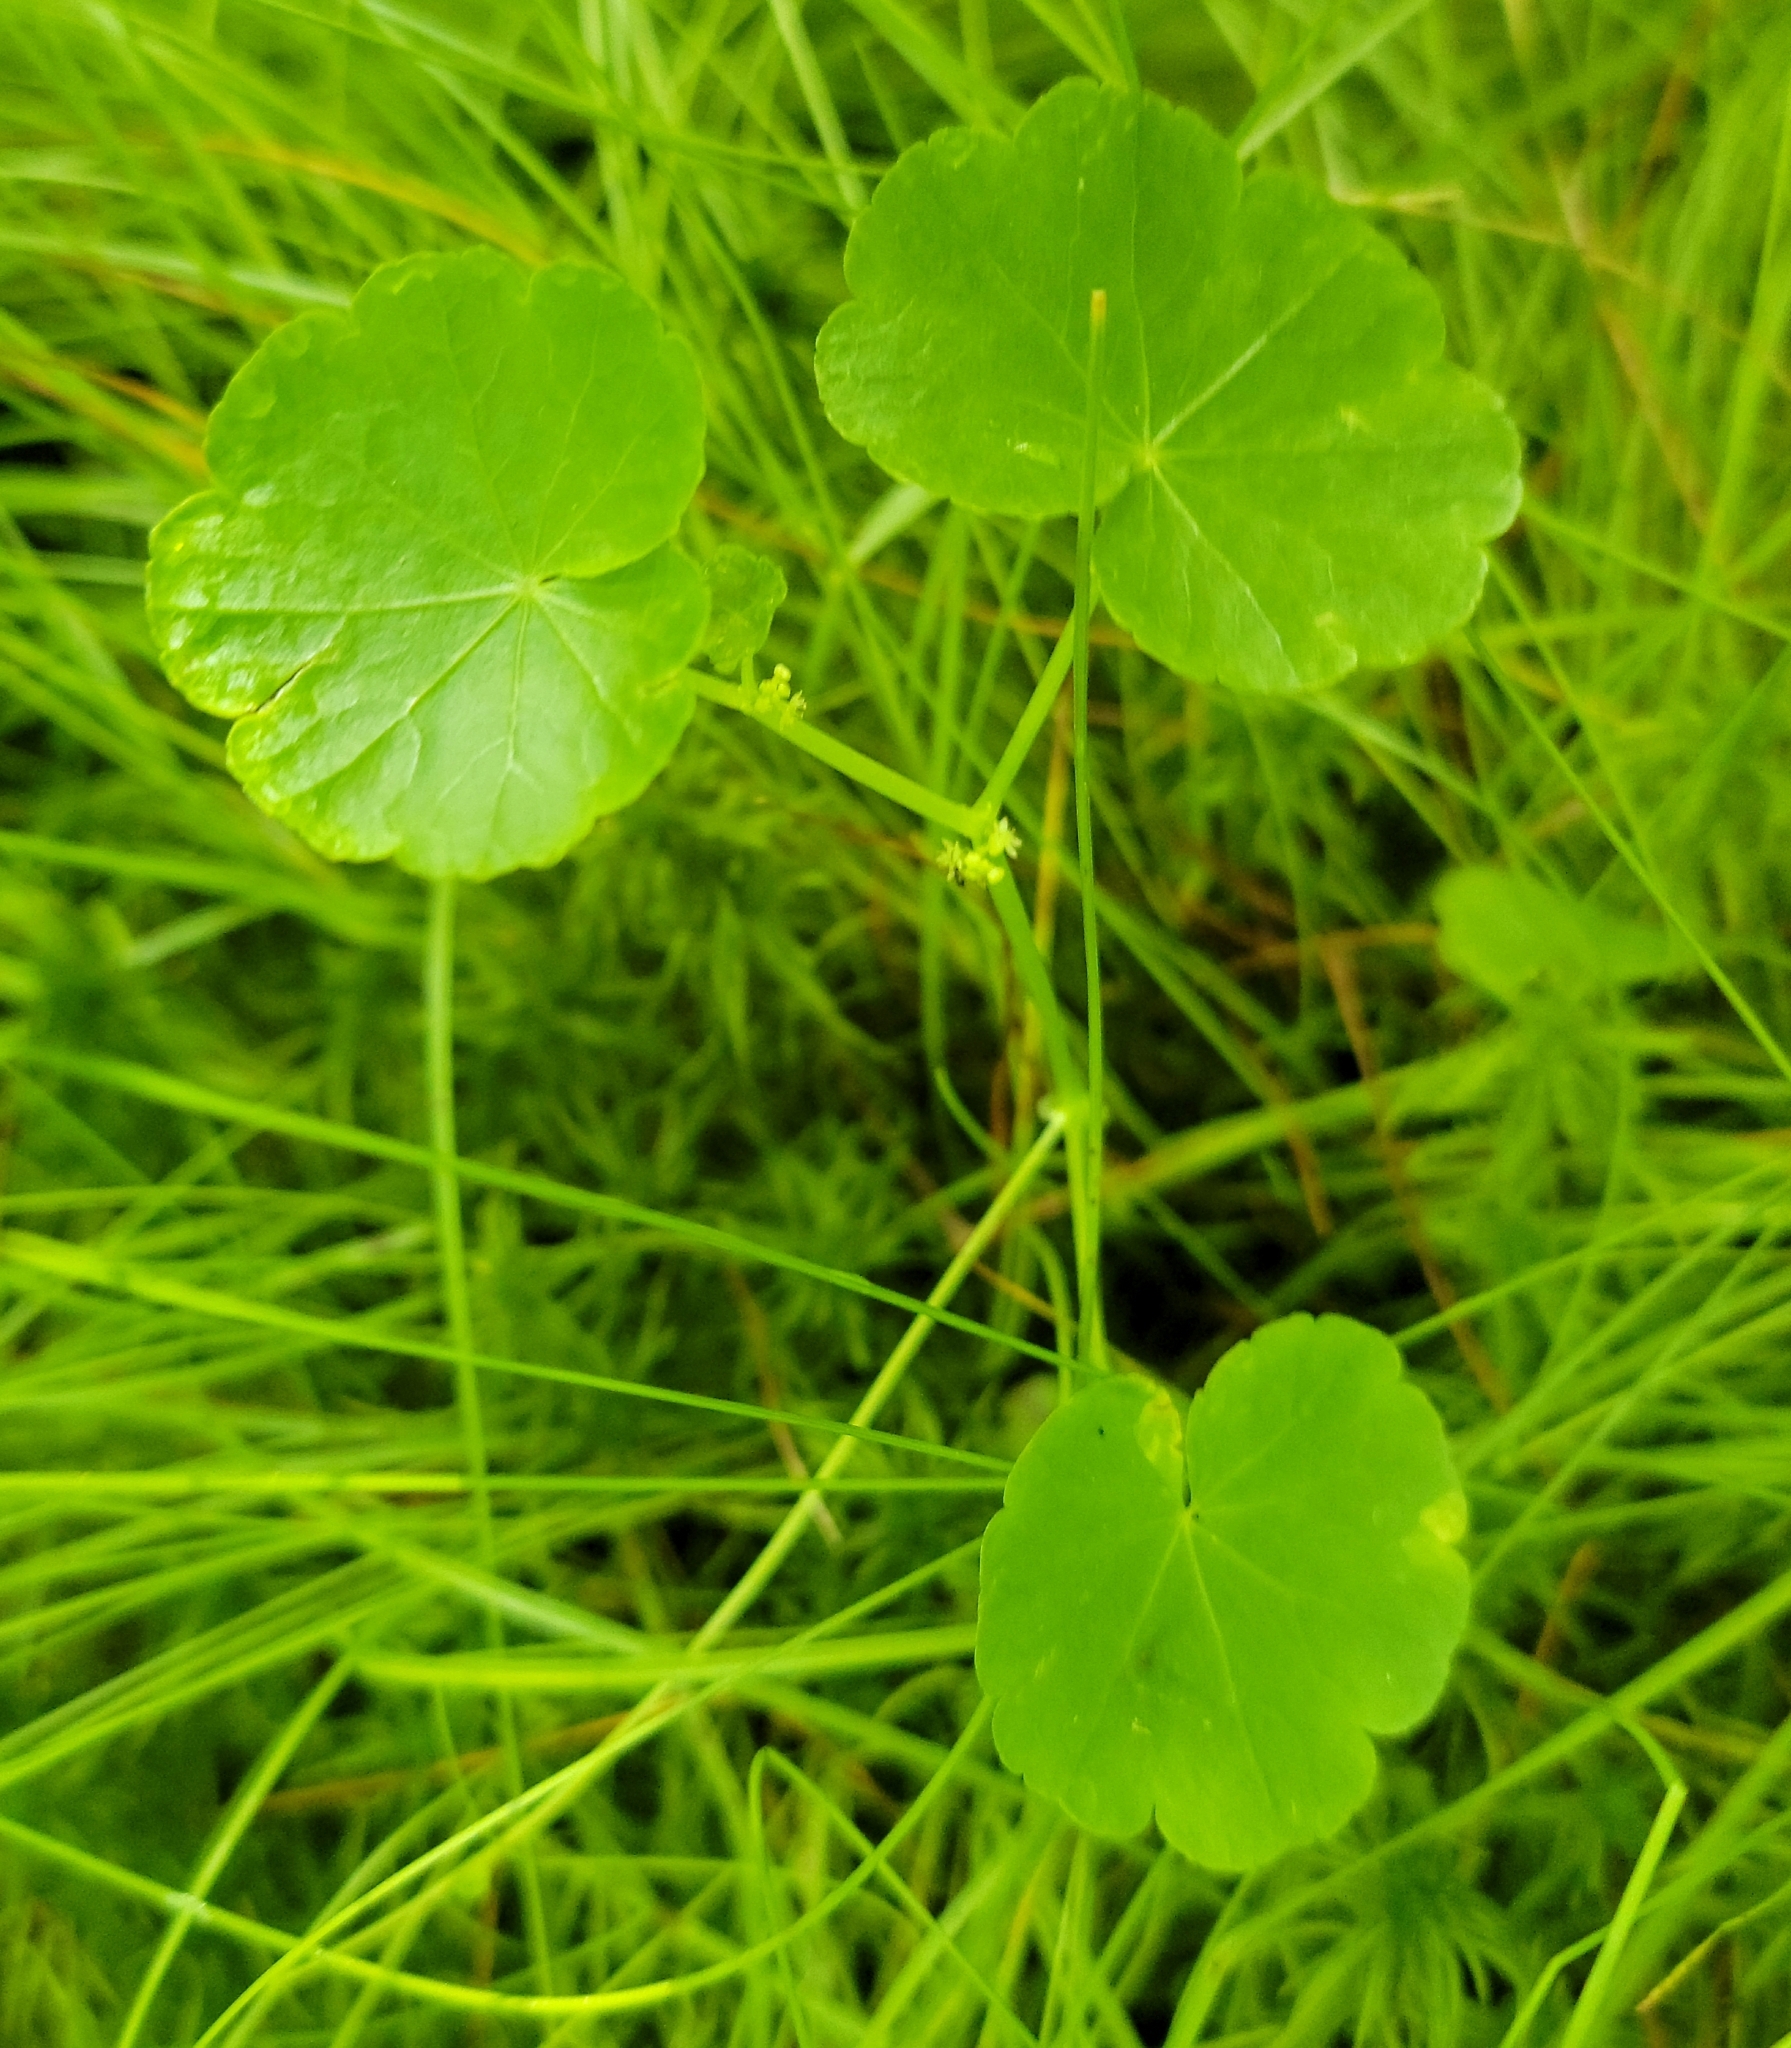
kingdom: Plantae
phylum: Tracheophyta
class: Magnoliopsida
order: Apiales
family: Araliaceae
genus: Hydrocotyle
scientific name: Hydrocotyle americana
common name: American water-pennywort
